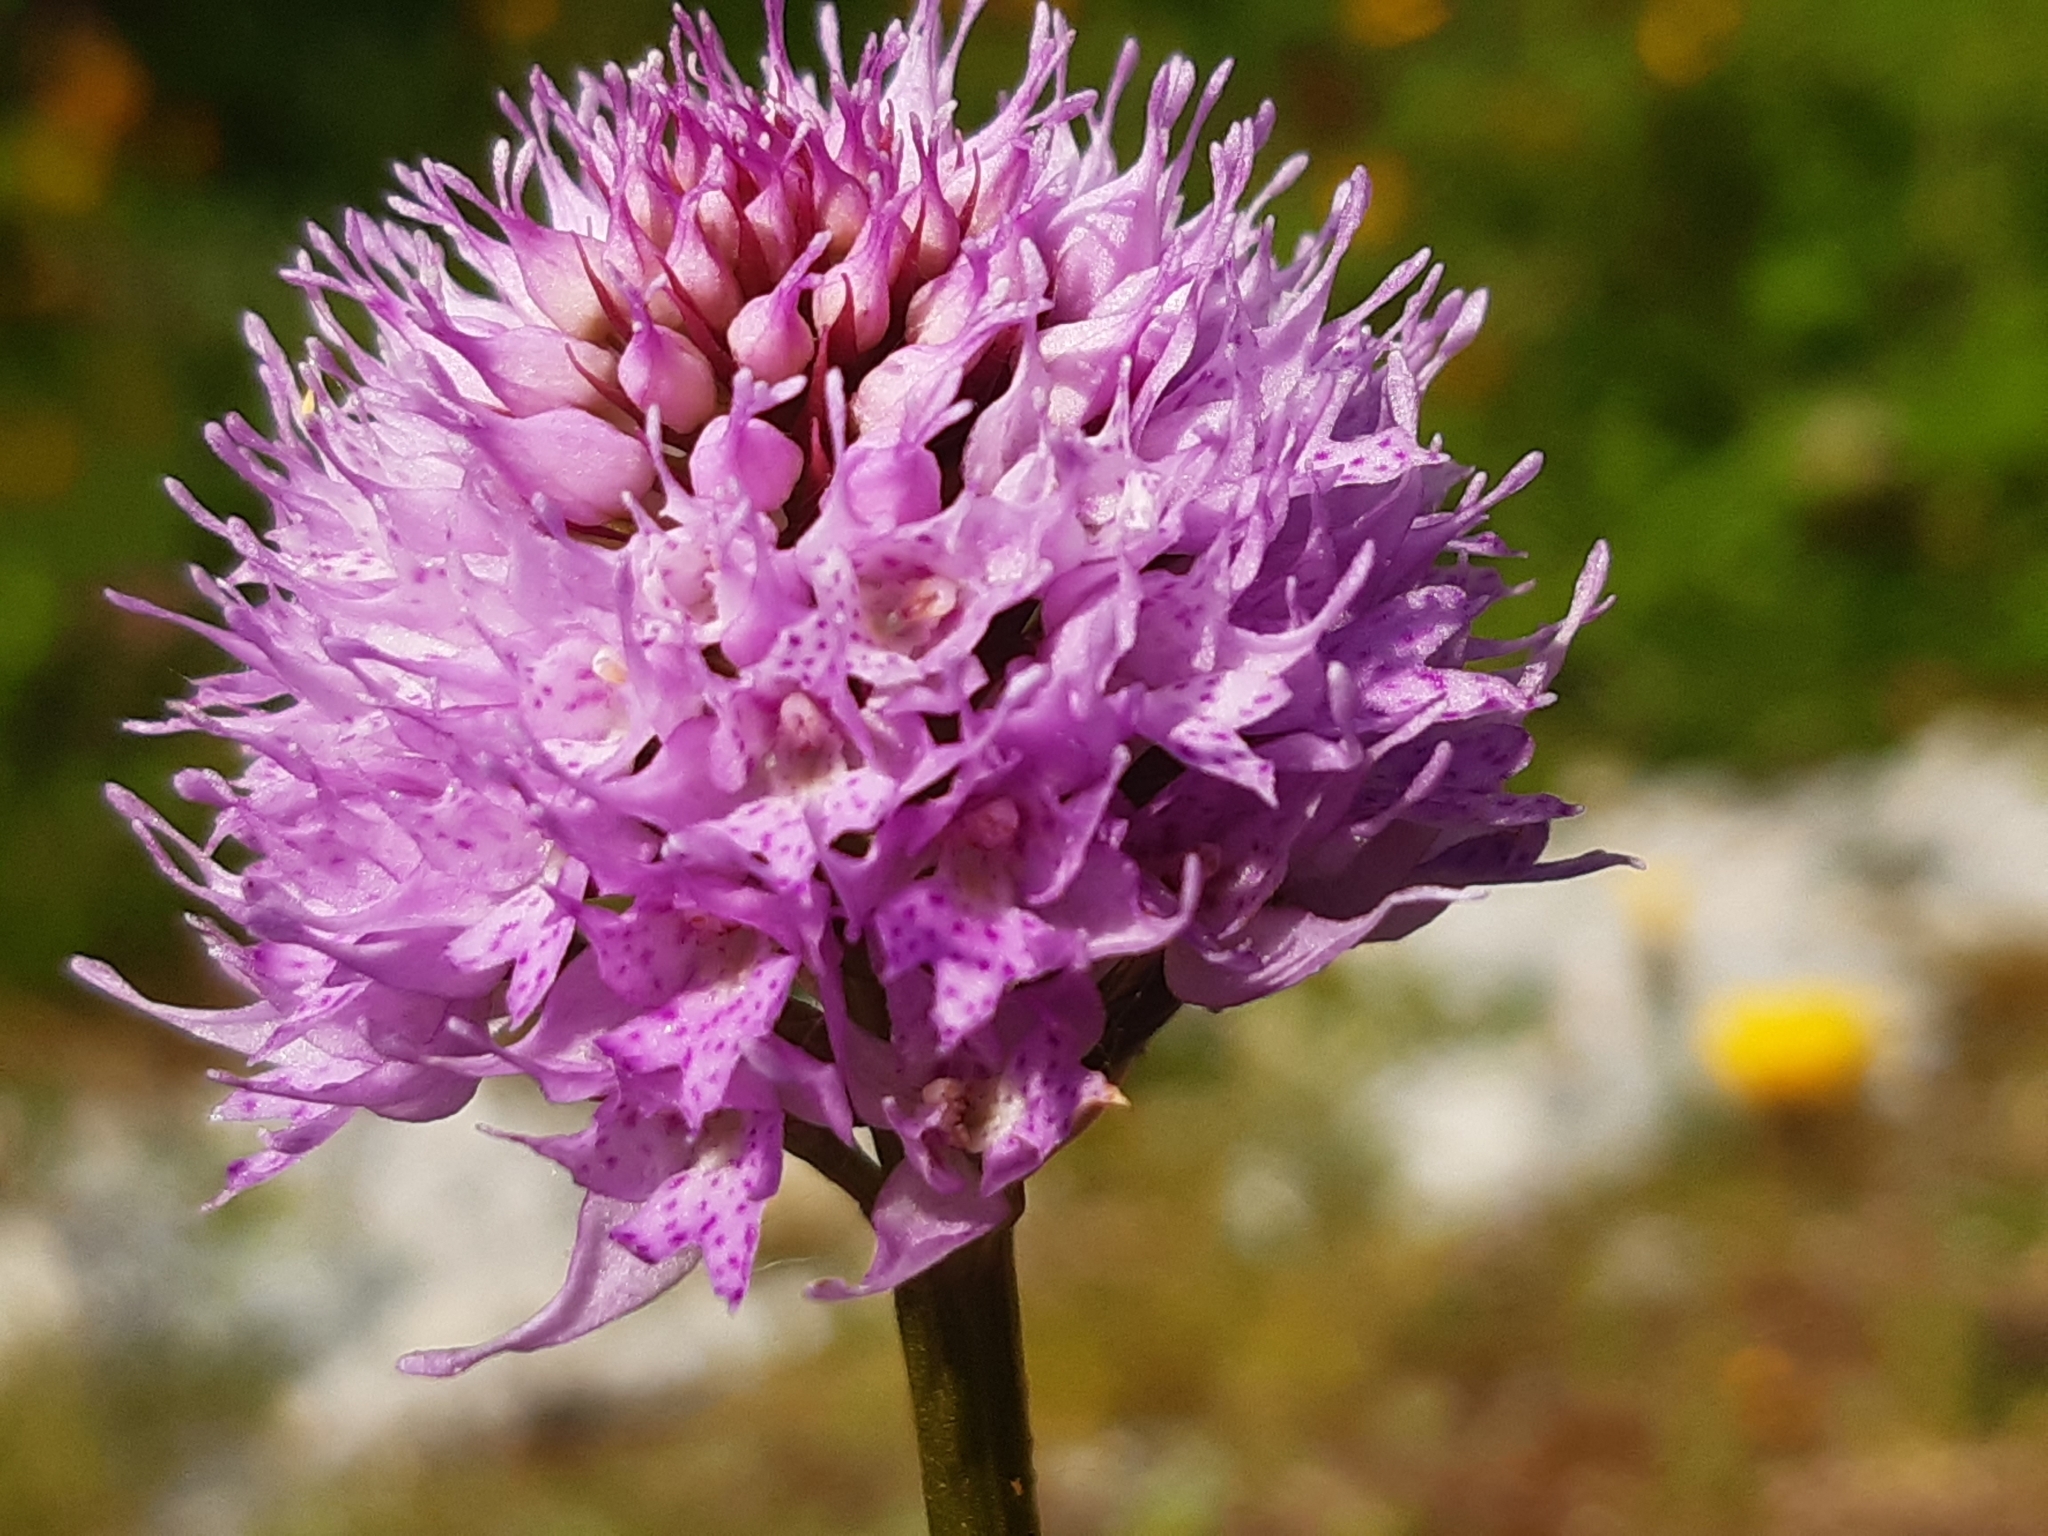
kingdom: Plantae
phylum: Tracheophyta
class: Liliopsida
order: Asparagales
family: Orchidaceae
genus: Traunsteinera
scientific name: Traunsteinera globosa
